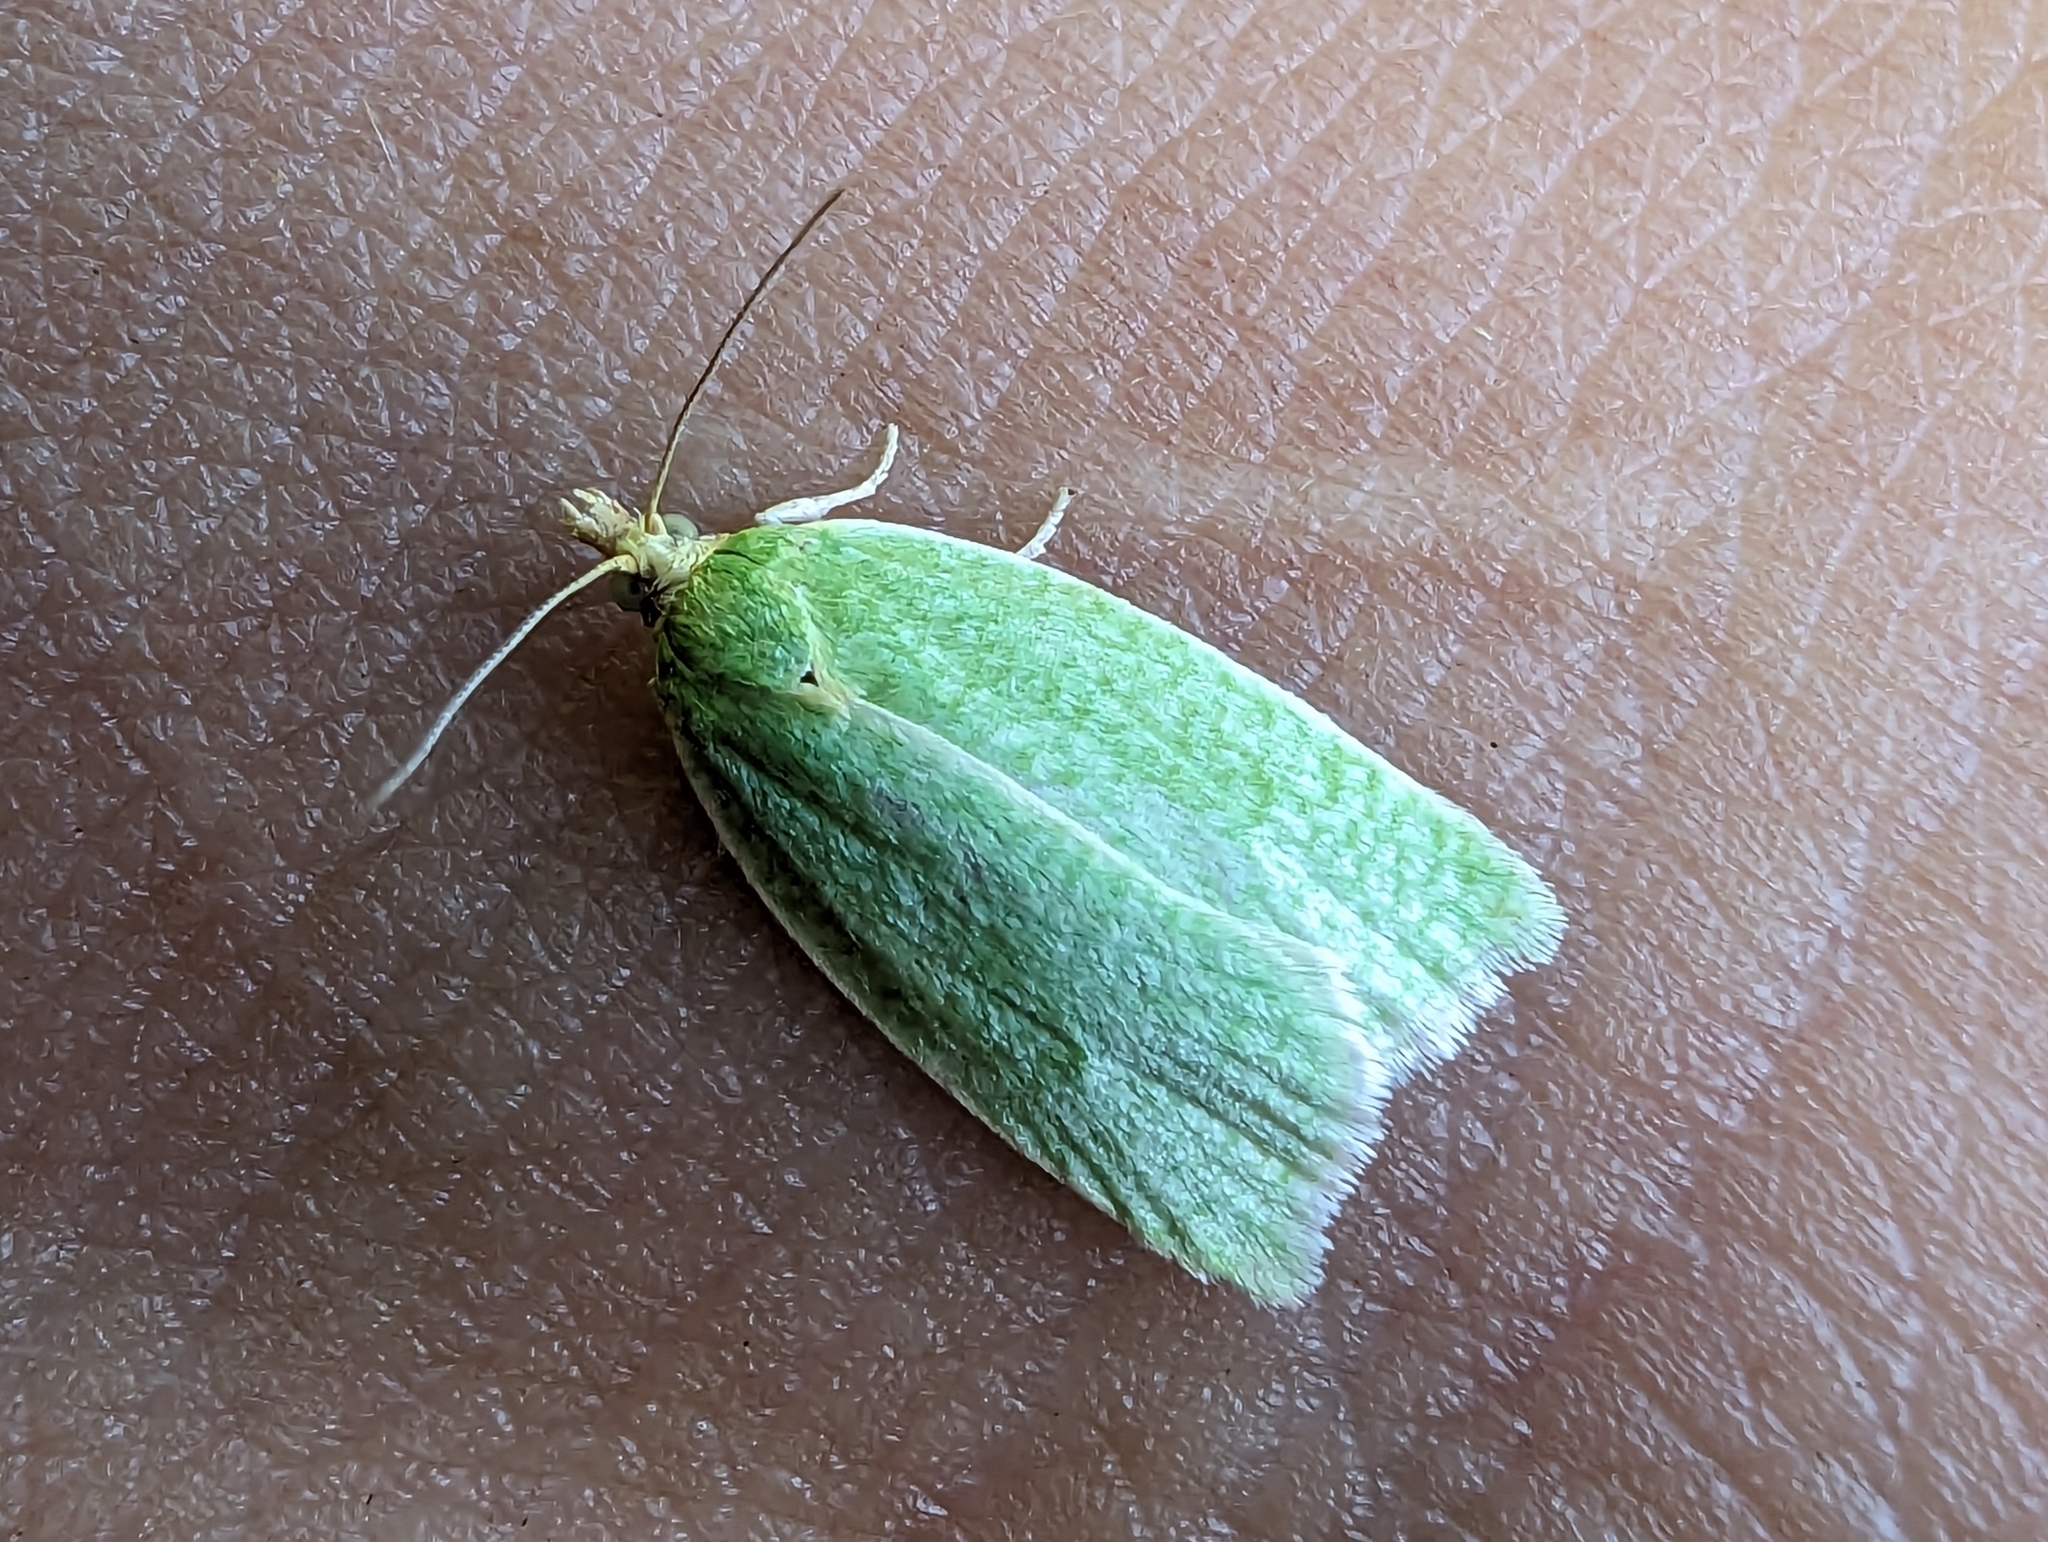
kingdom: Animalia
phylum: Arthropoda
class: Insecta
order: Lepidoptera
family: Tortricidae
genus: Tortrix
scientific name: Tortrix viridana
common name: Green oak tortrix
